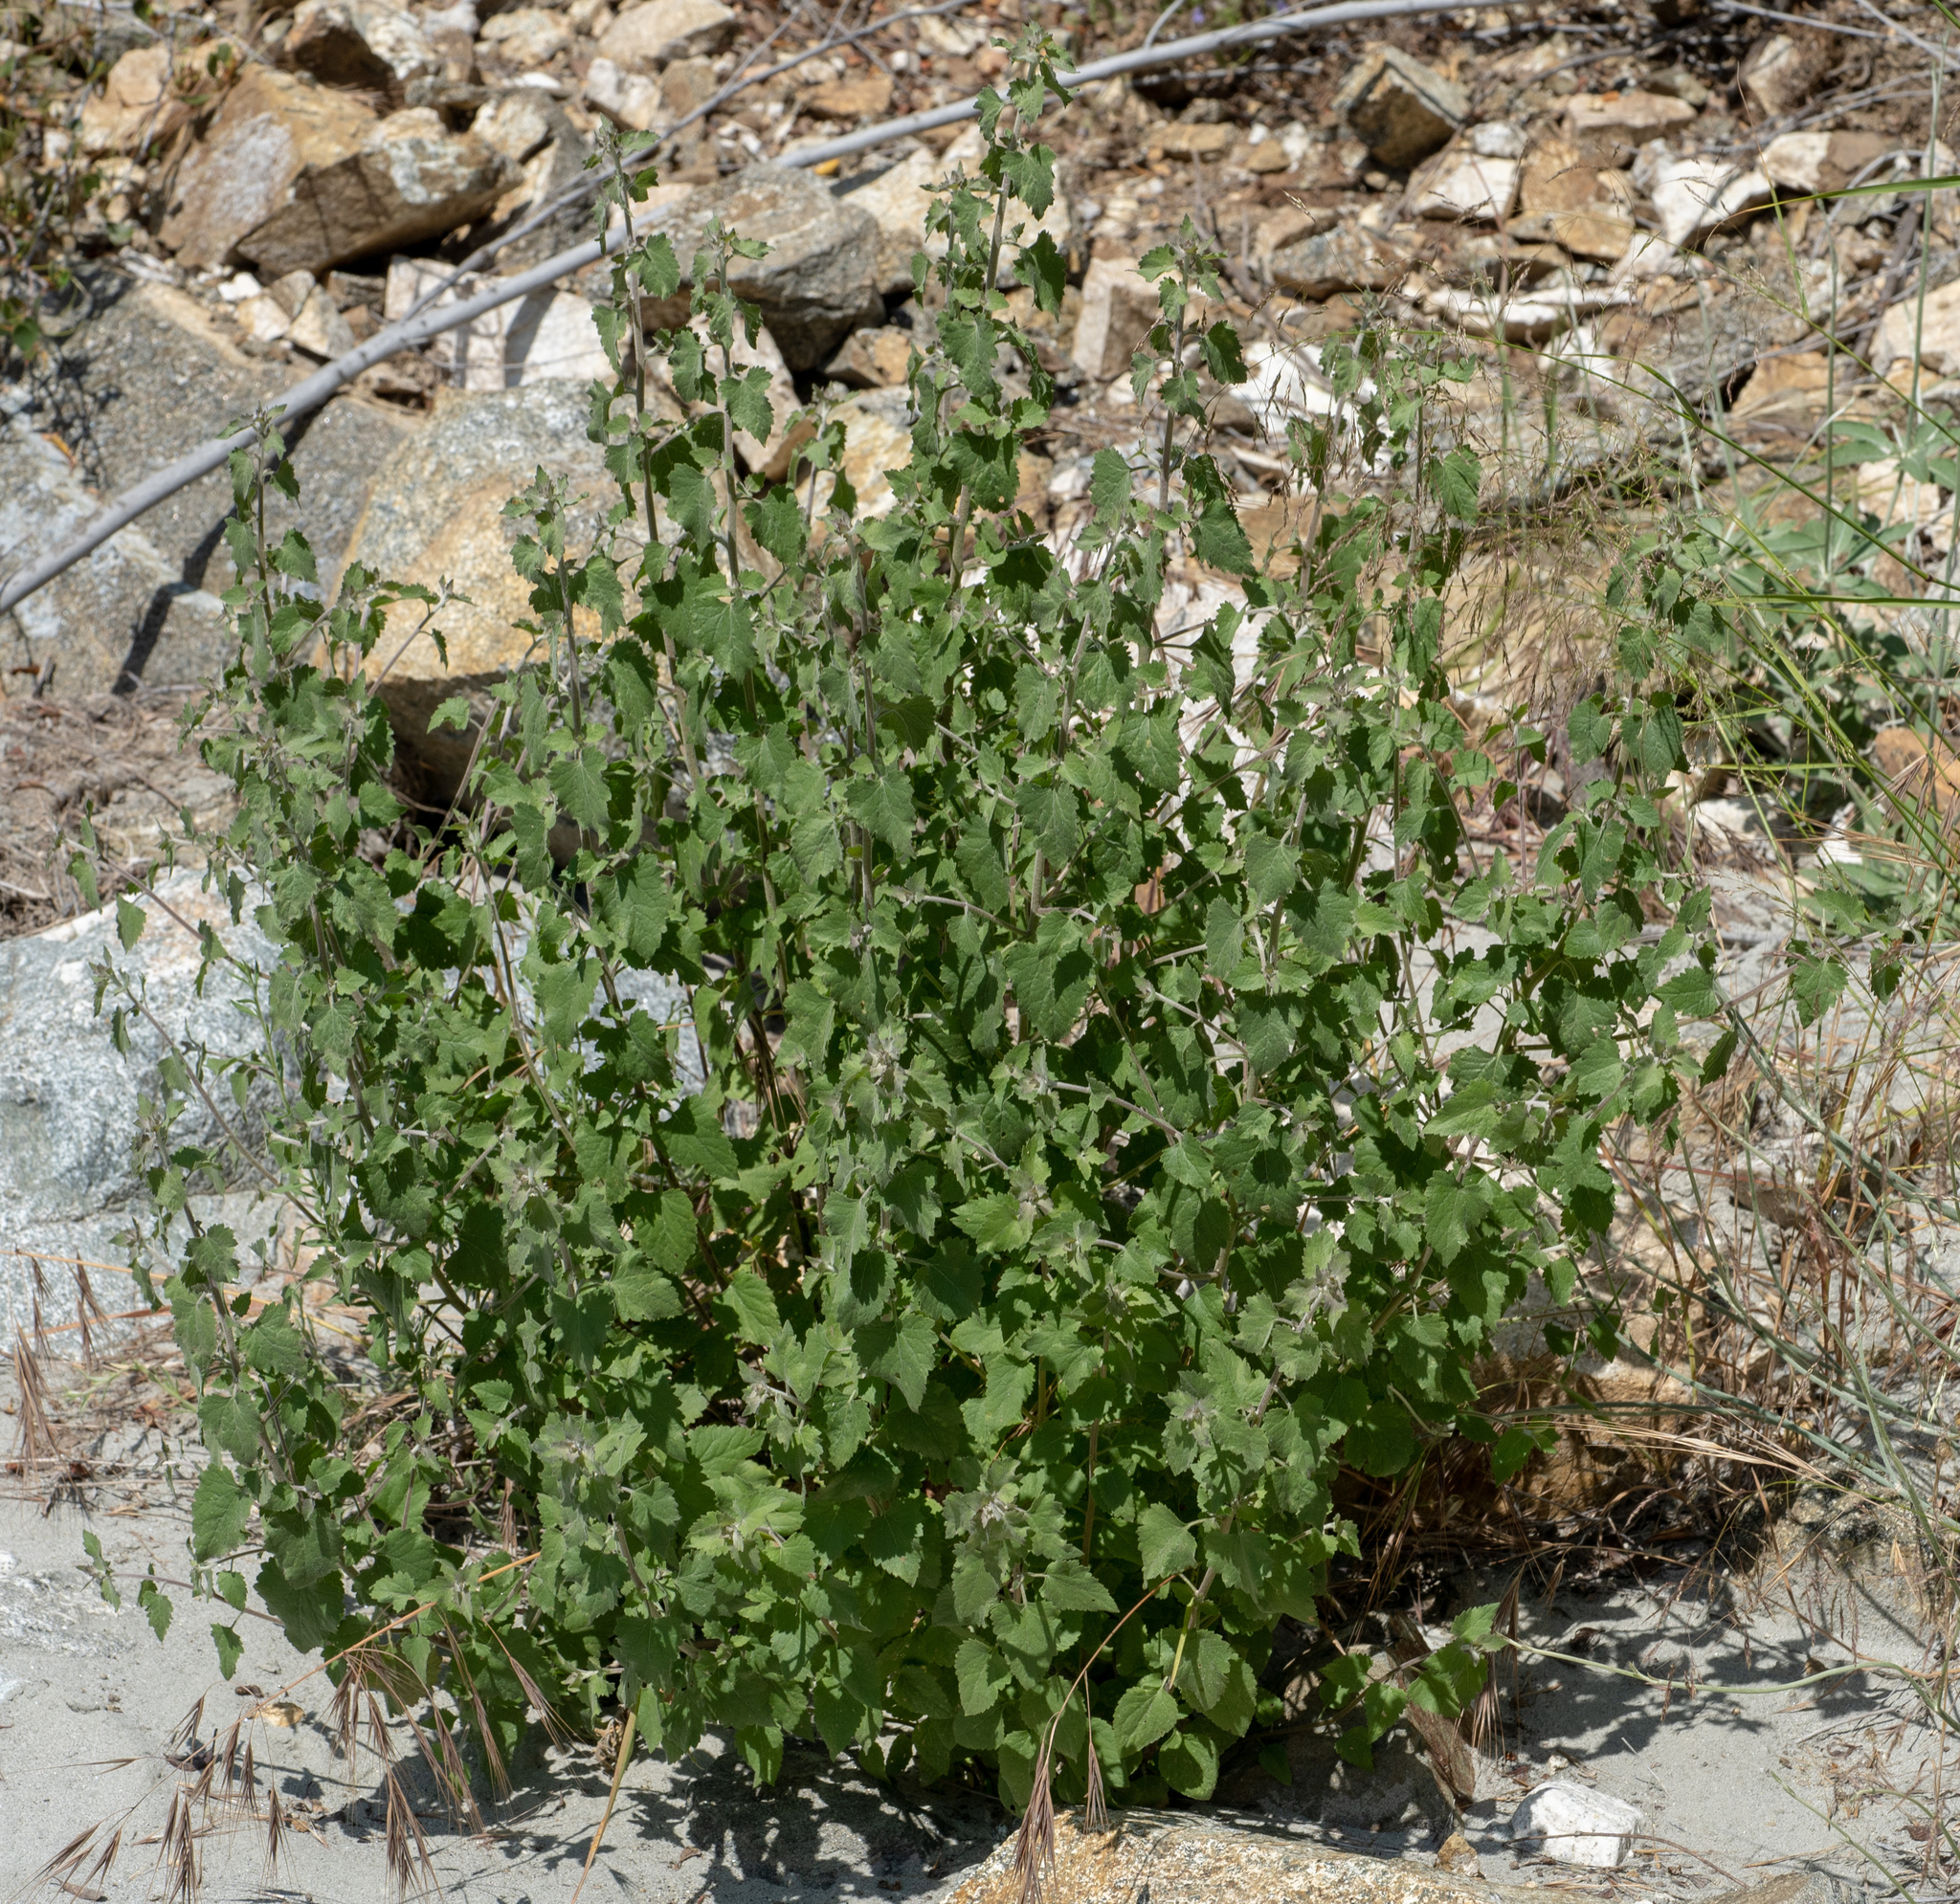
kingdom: Plantae
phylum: Tracheophyta
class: Magnoliopsida
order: Asterales
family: Asteraceae
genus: Brickellia
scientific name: Brickellia californica
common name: California brickellbush
